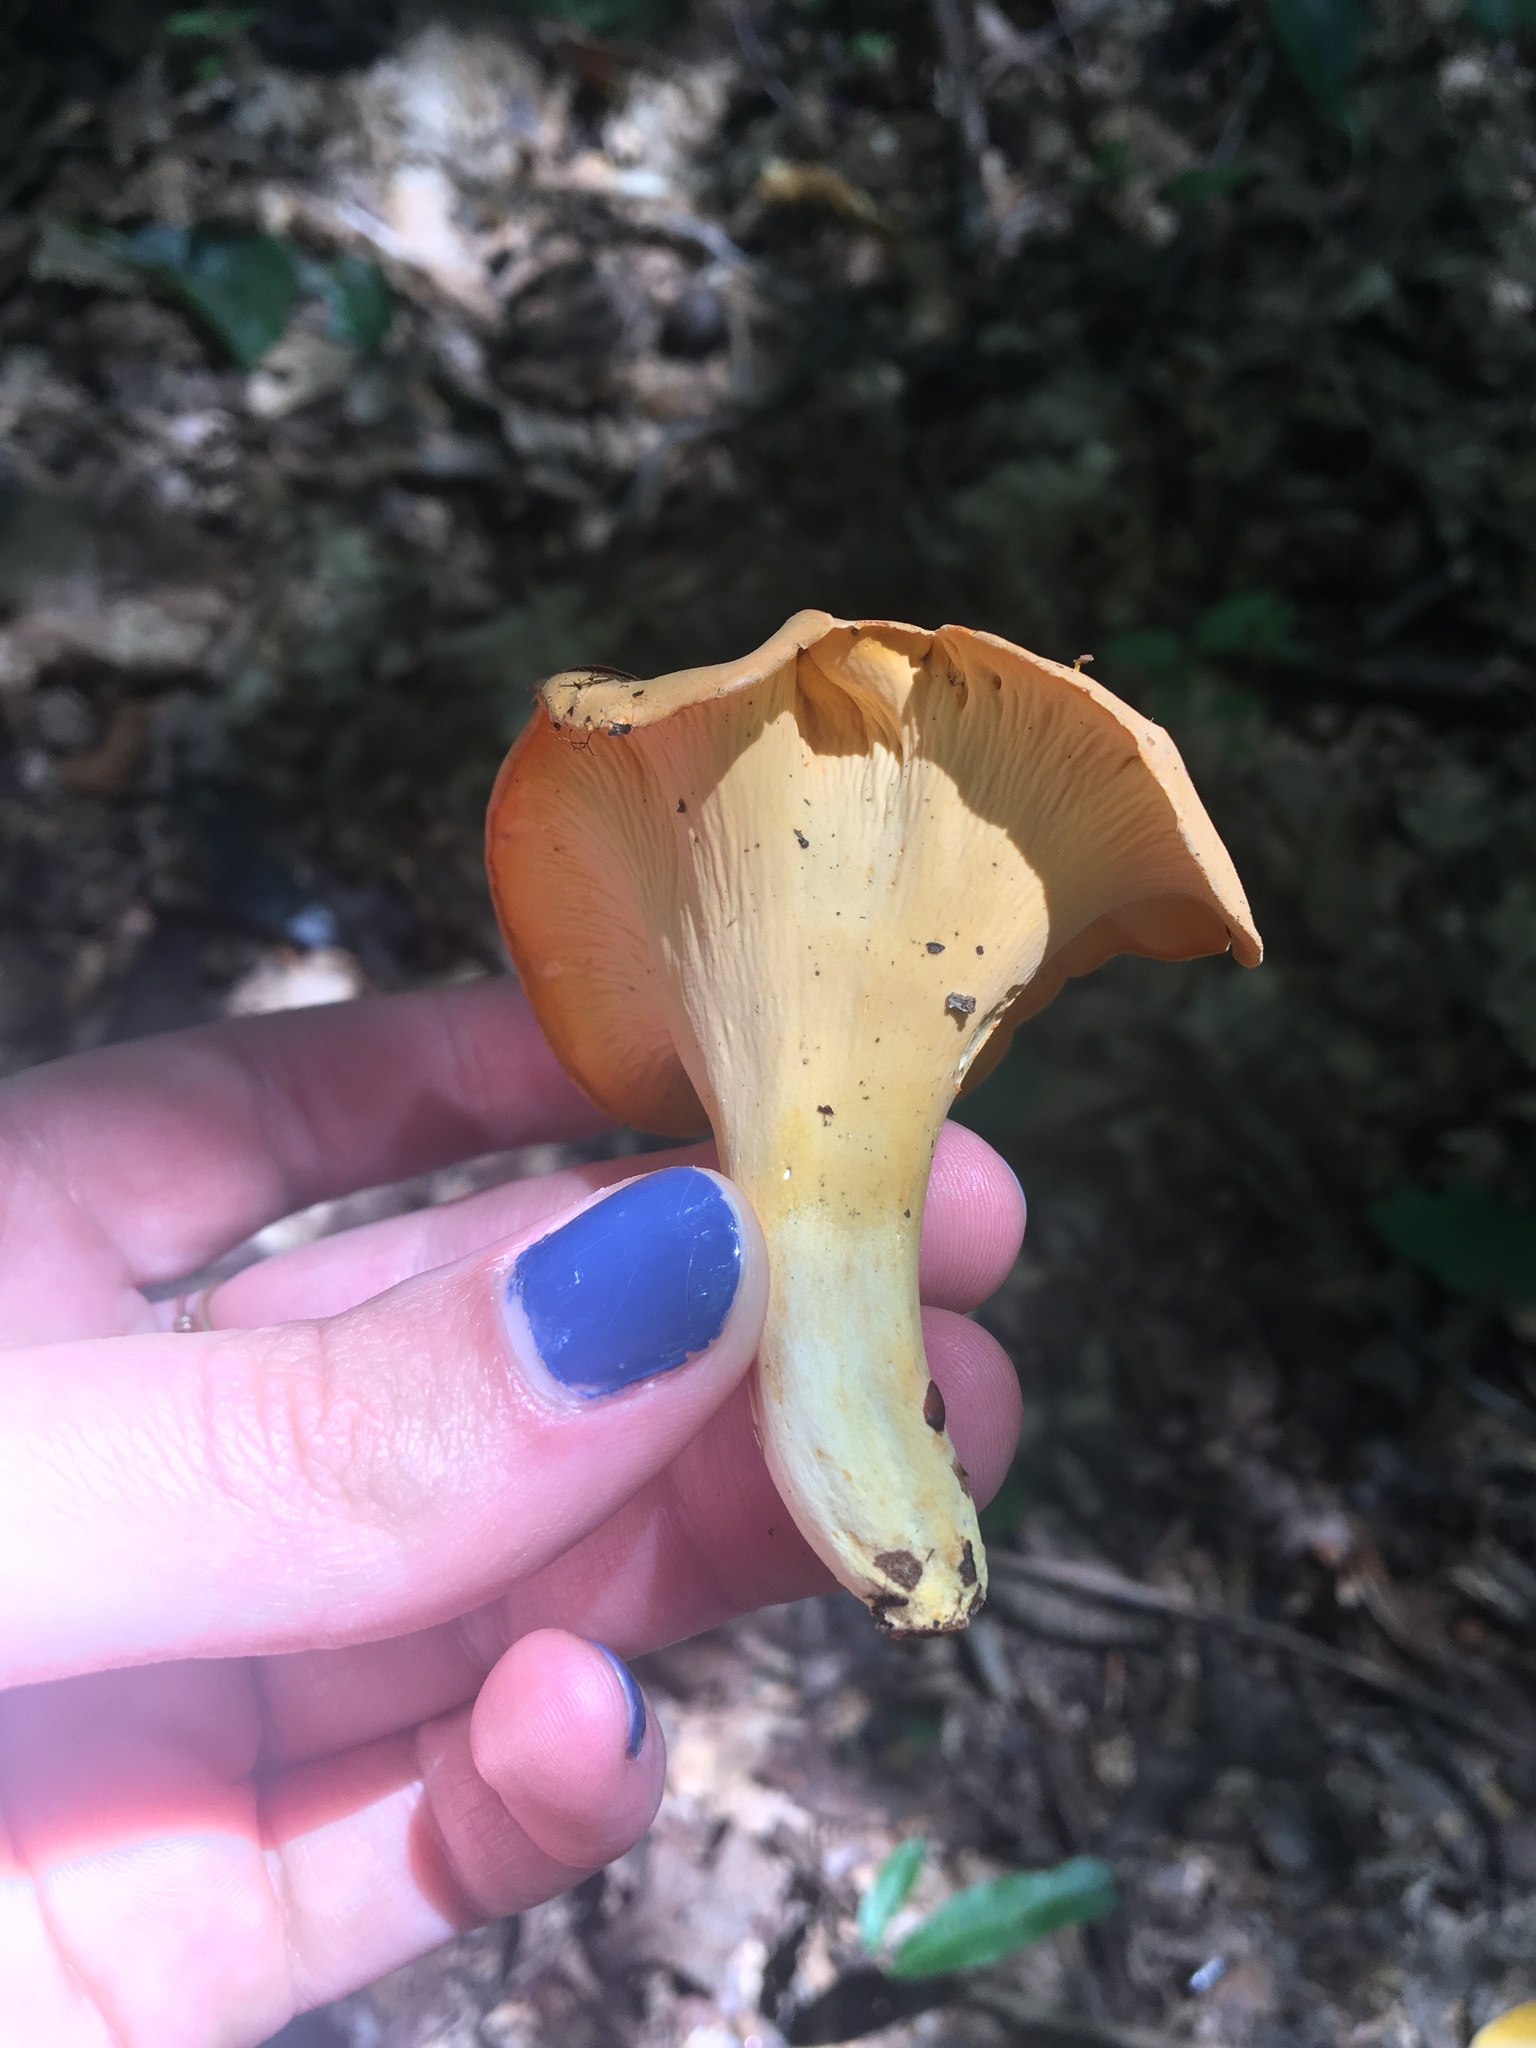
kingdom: Fungi
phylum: Basidiomycota
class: Agaricomycetes
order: Cantharellales
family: Hydnaceae
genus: Cantharellus
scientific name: Cantharellus lateritius
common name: Smooth chanterelle
